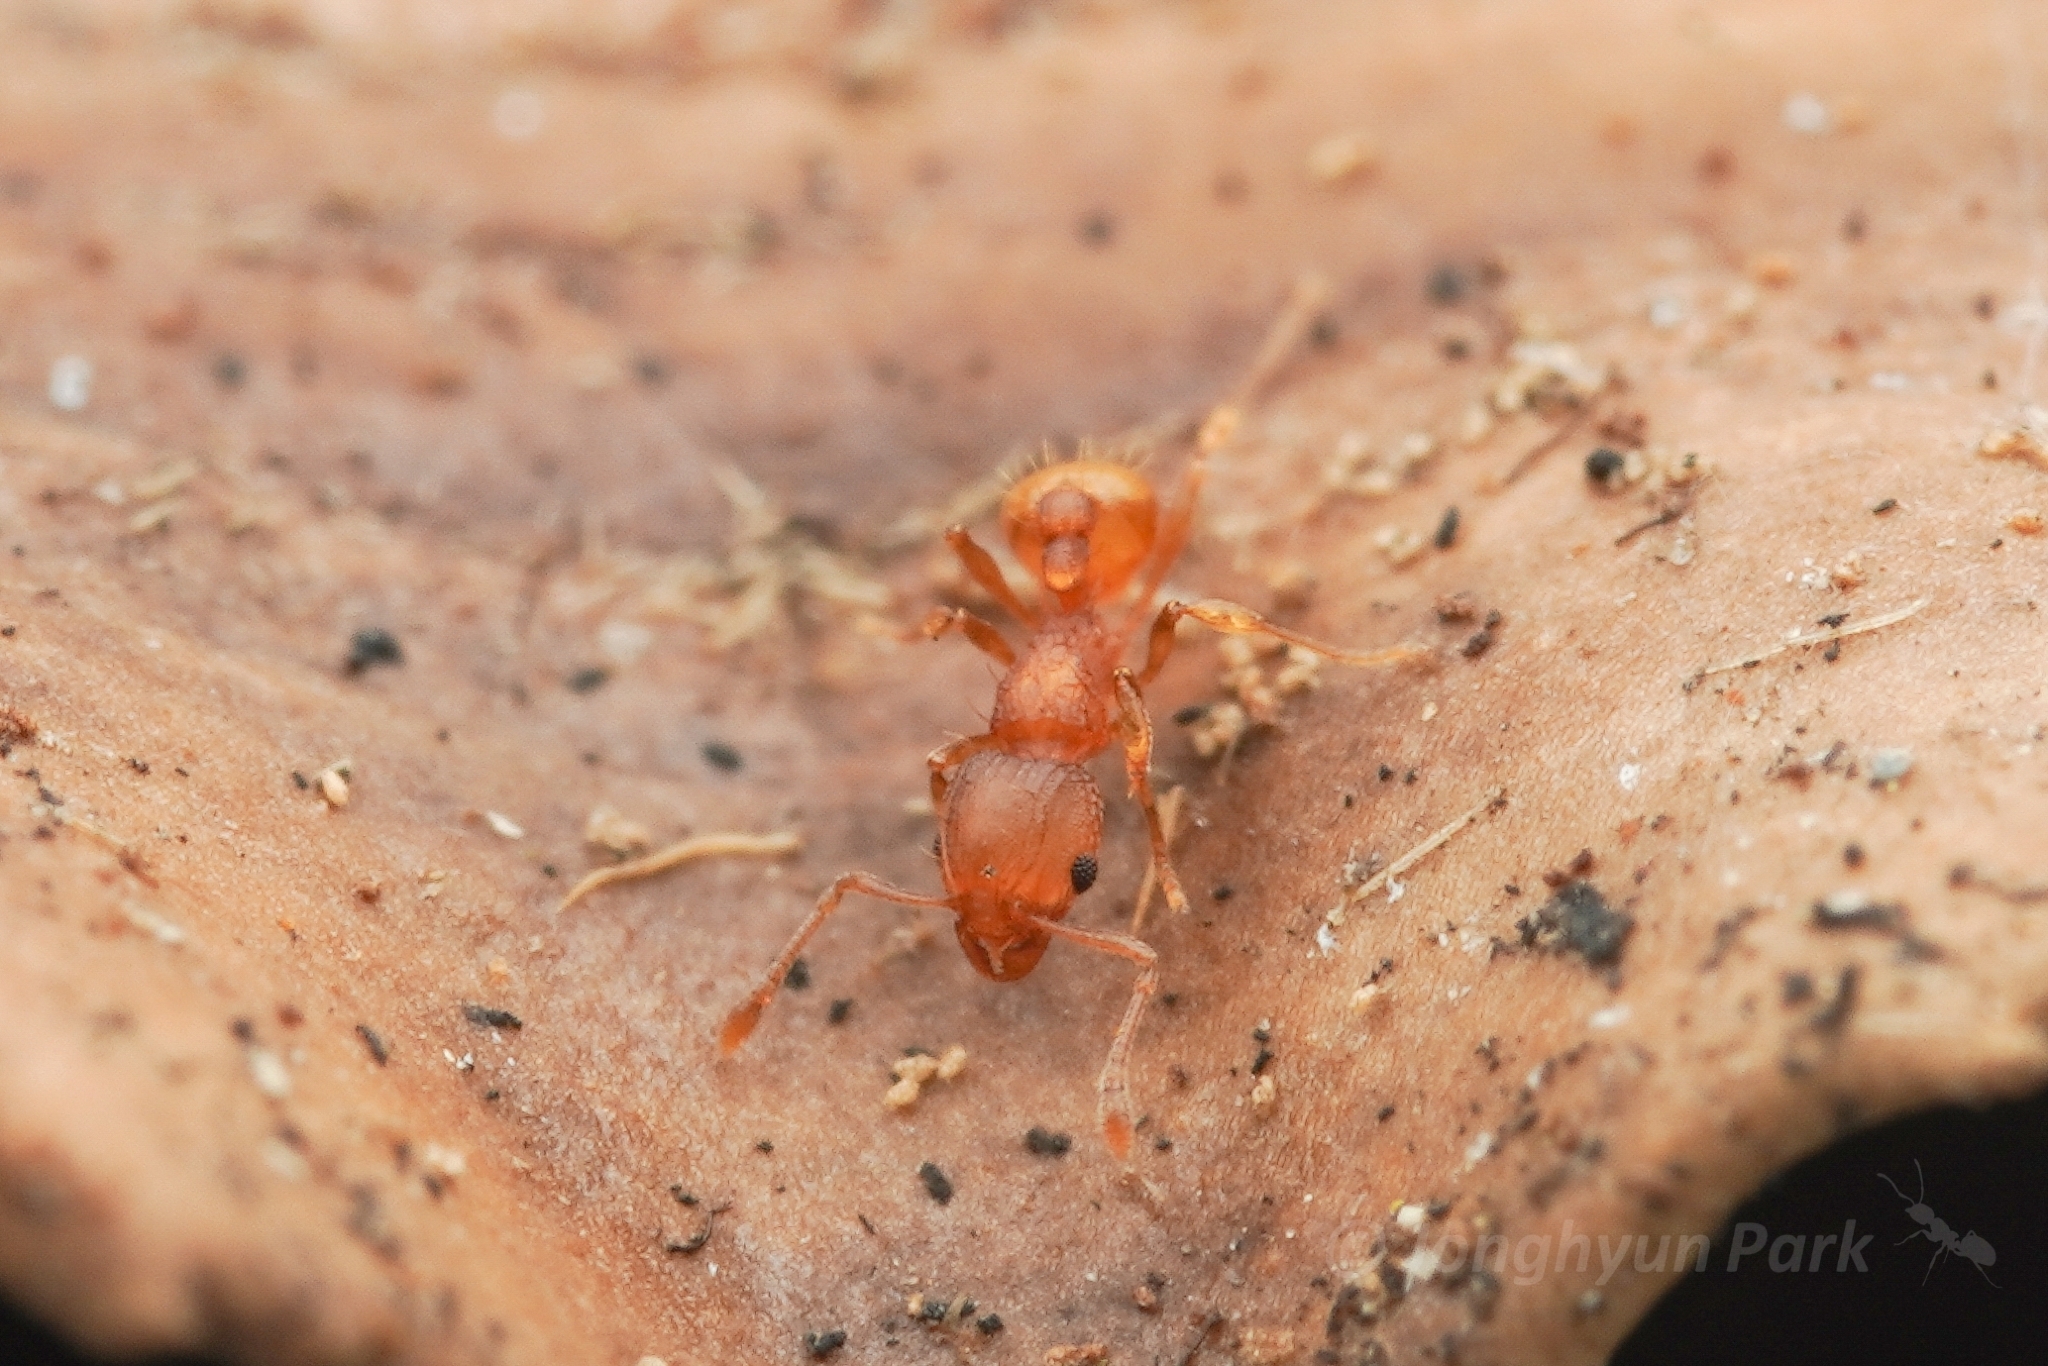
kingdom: Animalia
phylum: Arthropoda
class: Insecta
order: Hymenoptera
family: Formicidae
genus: Wasmannia
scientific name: Wasmannia auropunctata
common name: Little fire ant
